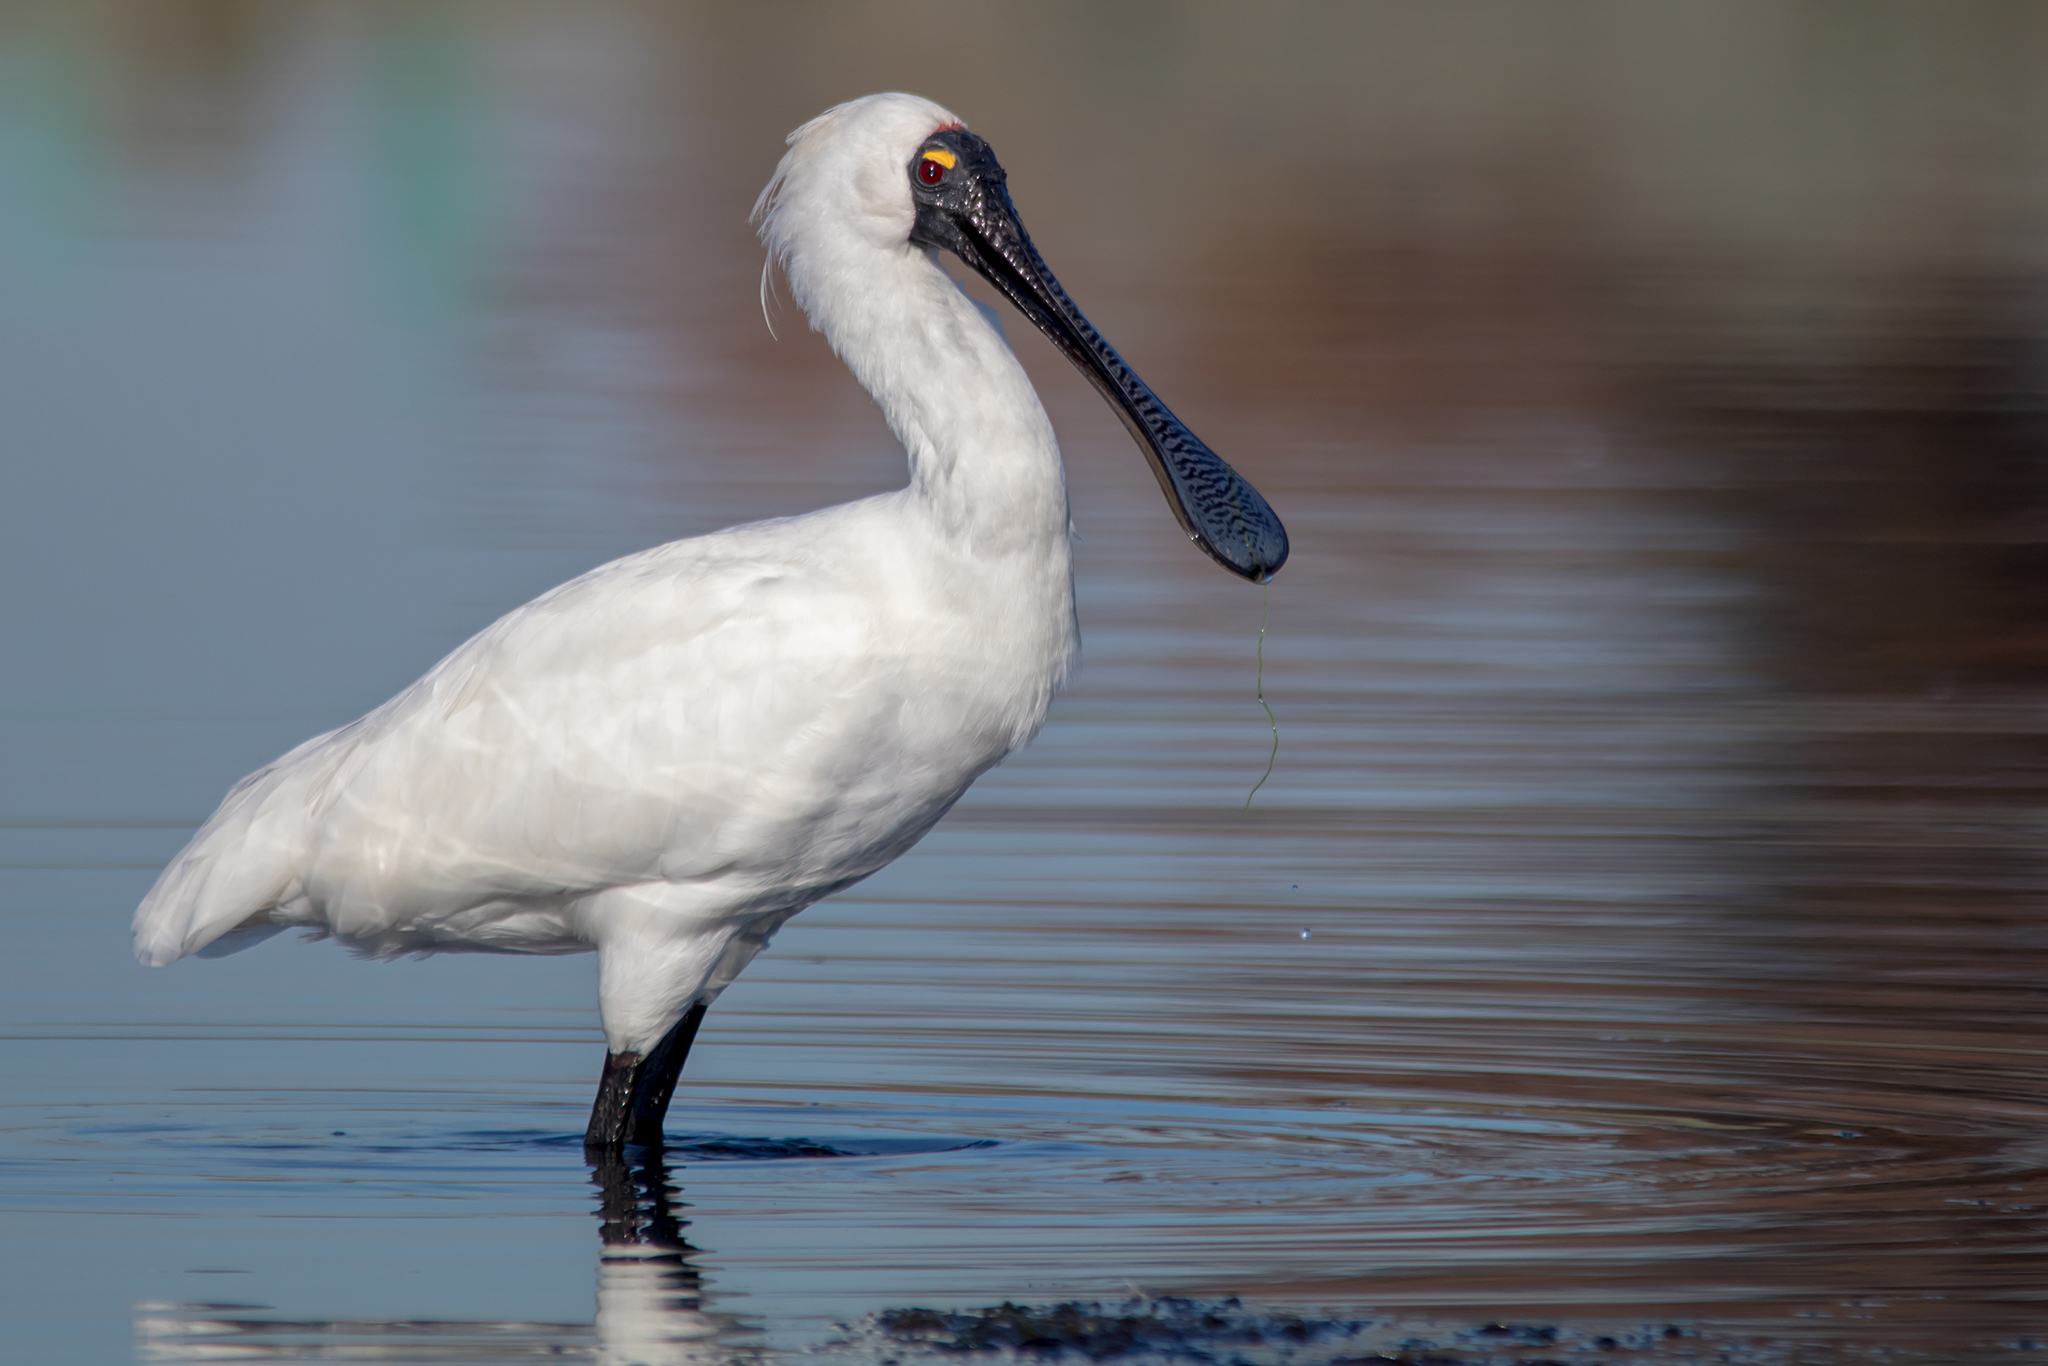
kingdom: Animalia
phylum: Chordata
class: Aves
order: Pelecaniformes
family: Threskiornithidae
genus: Platalea
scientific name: Platalea regia
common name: Royal spoonbill
